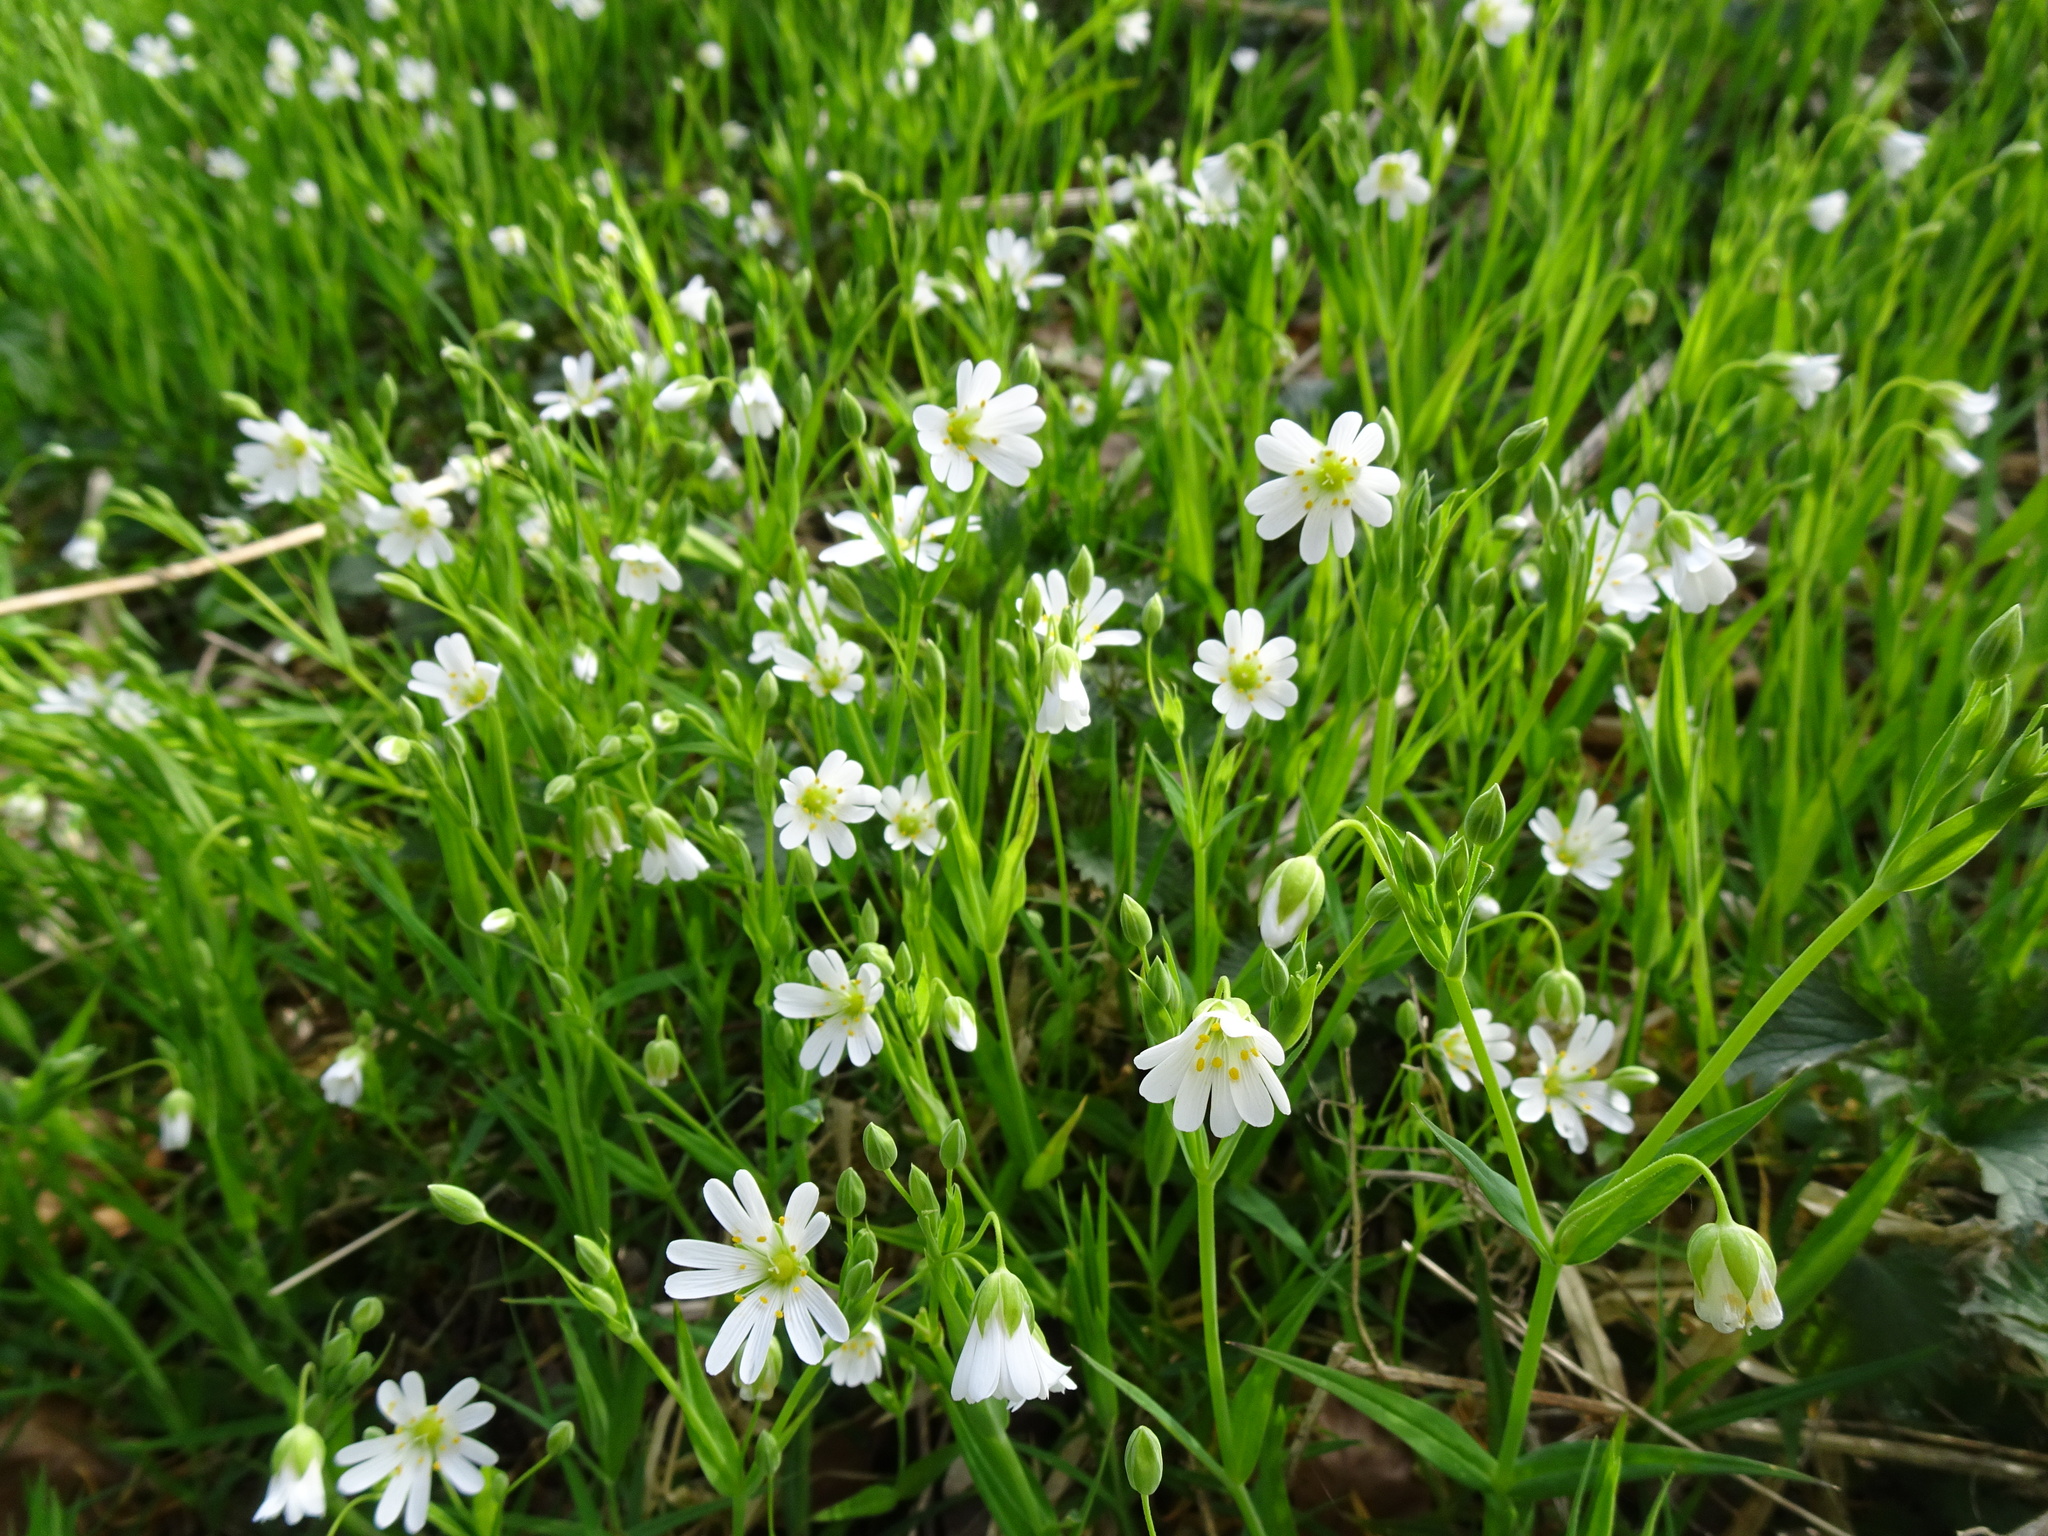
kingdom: Plantae
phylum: Tracheophyta
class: Magnoliopsida
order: Caryophyllales
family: Caryophyllaceae
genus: Rabelera
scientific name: Rabelera holostea
